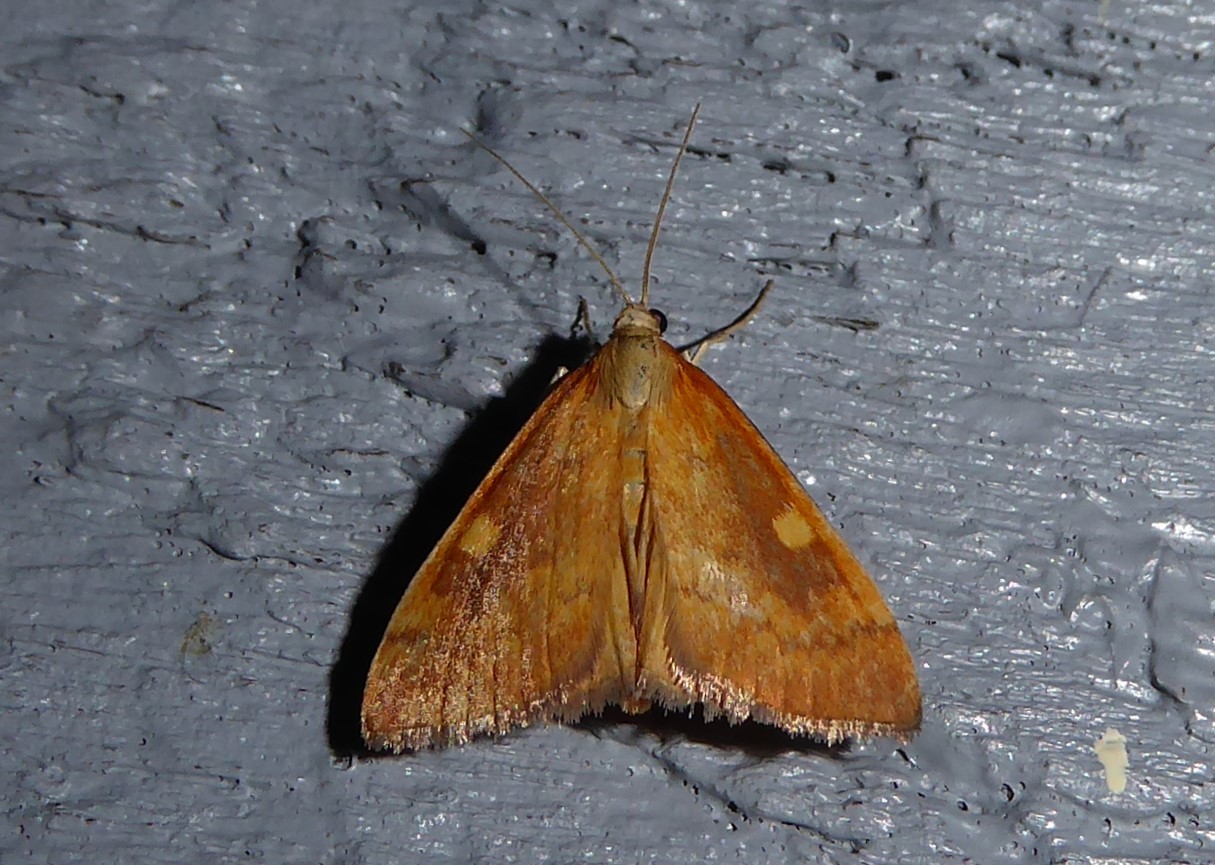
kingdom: Animalia
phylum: Arthropoda
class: Insecta
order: Lepidoptera
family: Crambidae
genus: Udea
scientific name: Udea Mnesictena flavidalis
